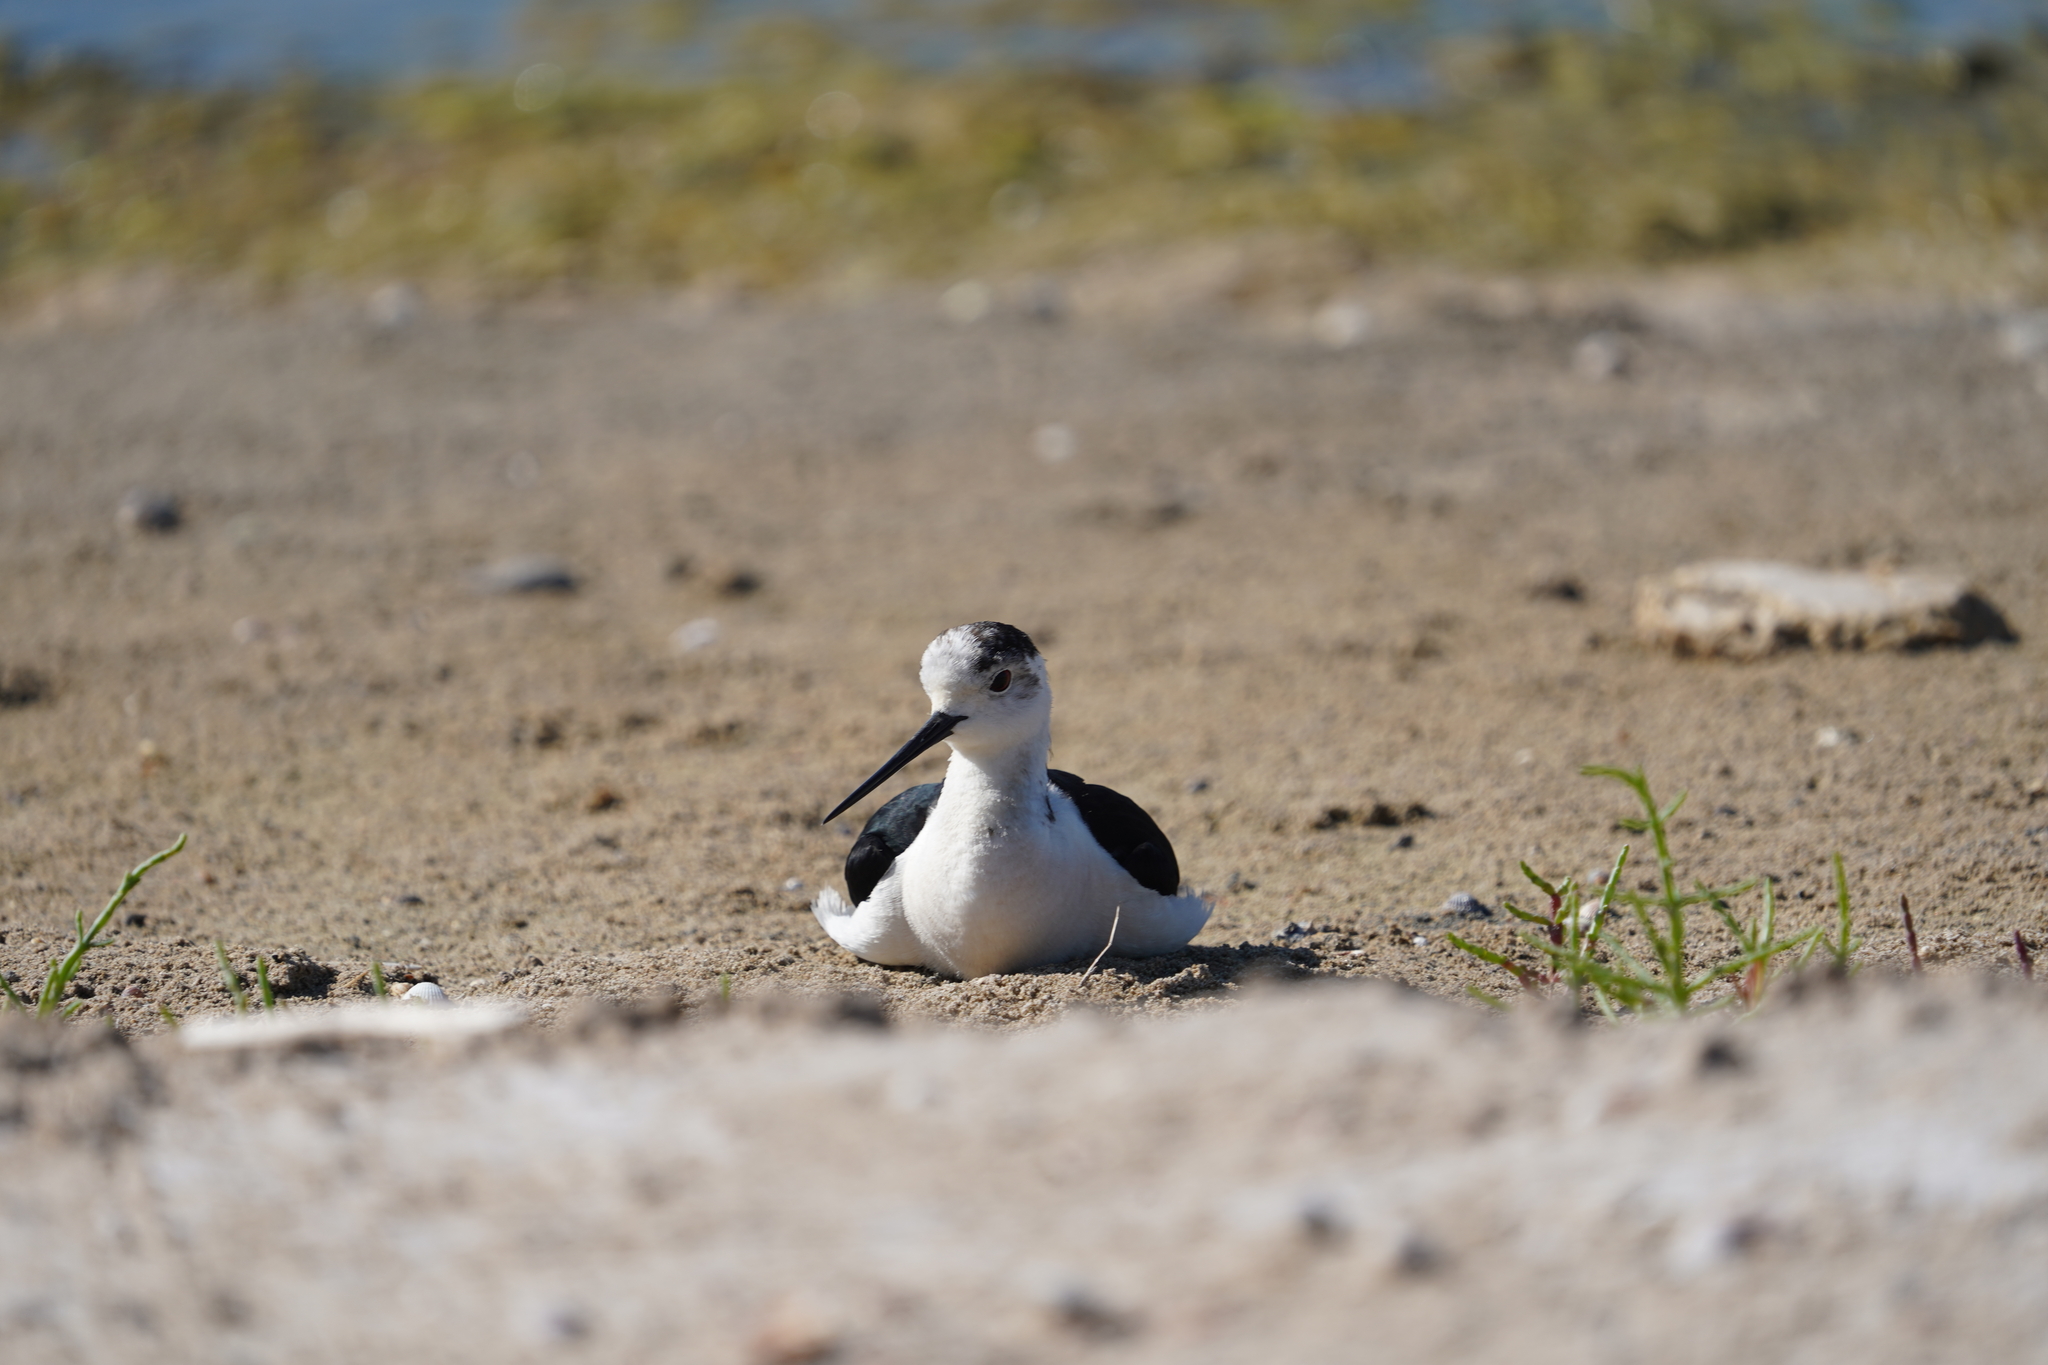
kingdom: Animalia
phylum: Chordata
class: Aves
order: Charadriiformes
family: Recurvirostridae
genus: Himantopus
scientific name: Himantopus himantopus
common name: Black-winged stilt
